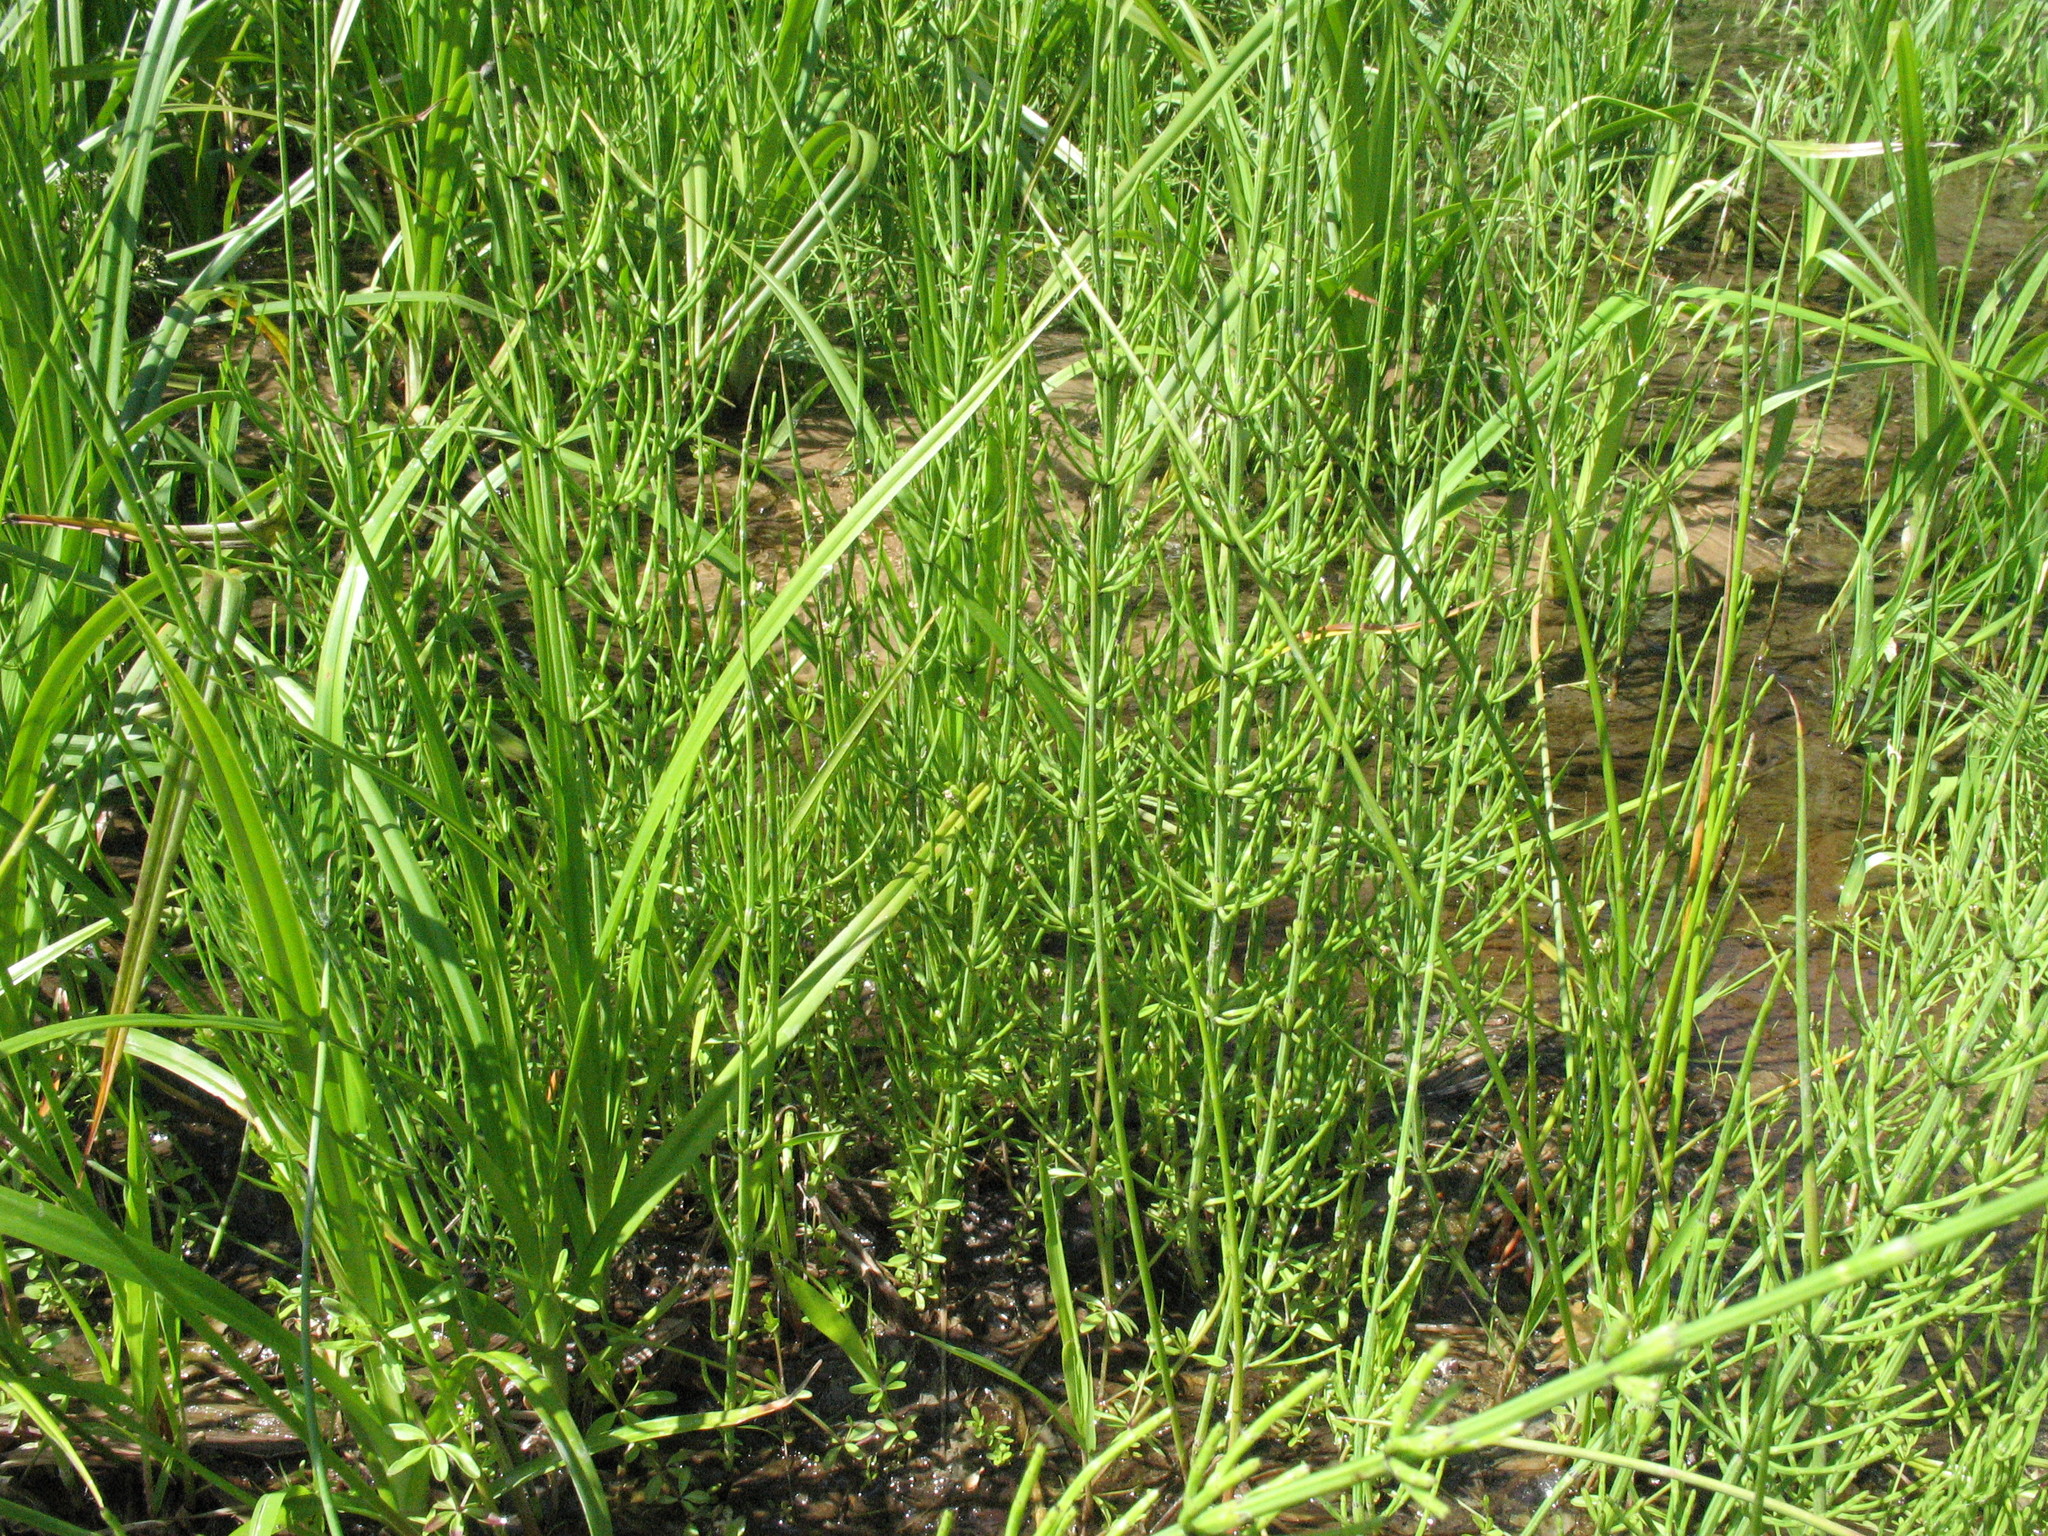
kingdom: Plantae
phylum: Tracheophyta
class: Polypodiopsida
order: Equisetales
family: Equisetaceae
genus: Equisetum
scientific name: Equisetum palustre
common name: Marsh horsetail
